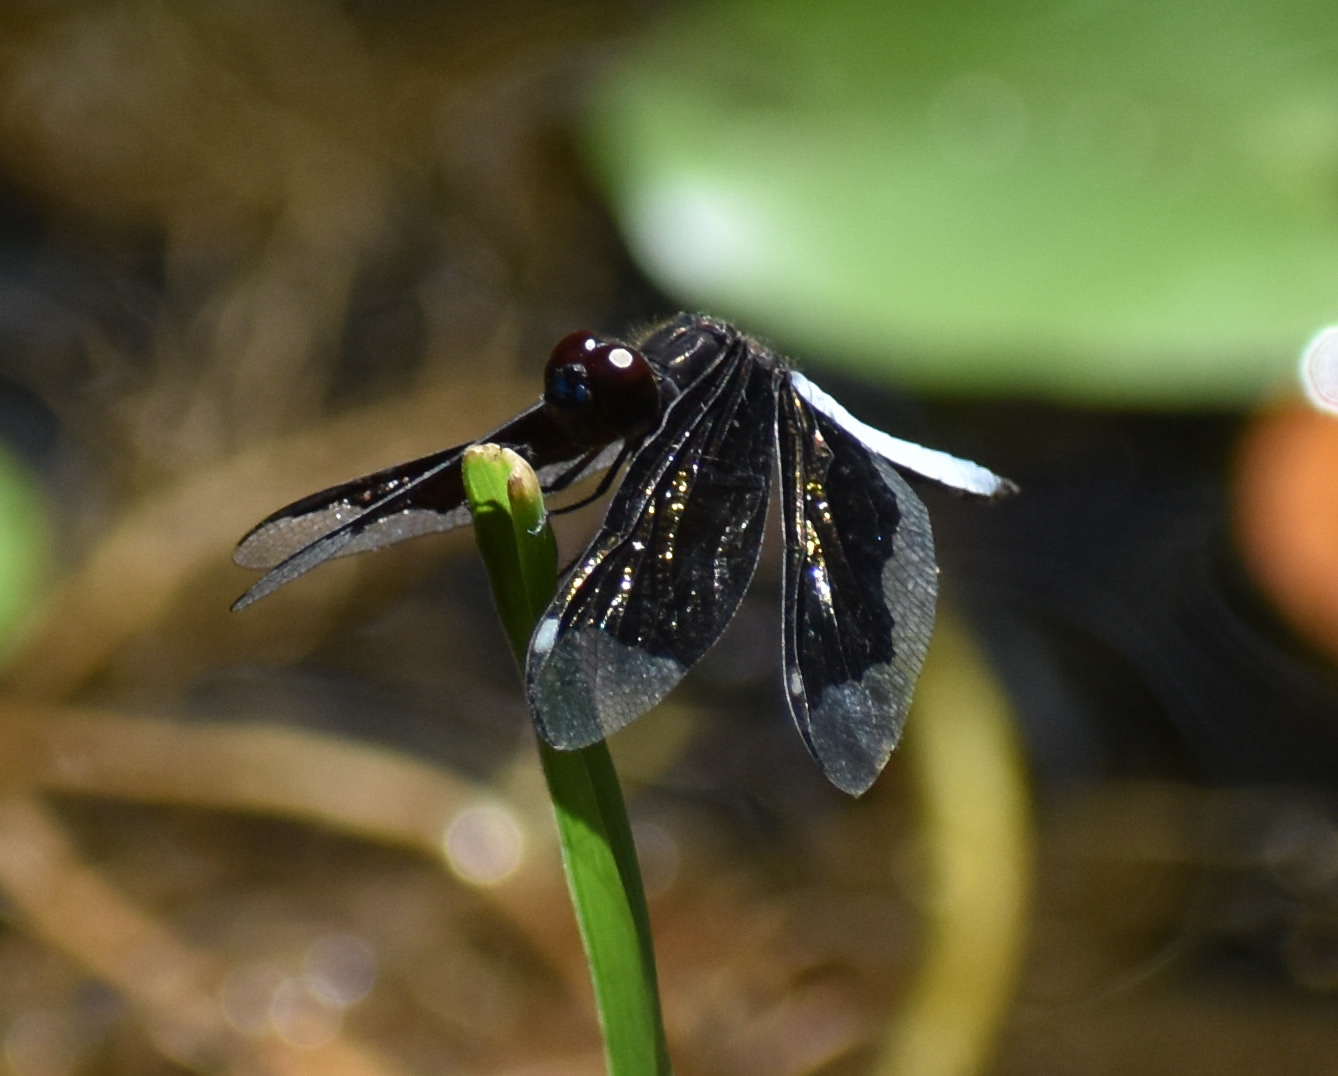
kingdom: Animalia
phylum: Arthropoda
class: Insecta
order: Odonata
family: Libellulidae
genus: Palpopleura
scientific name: Palpopleura lucia
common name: Lucia widow
